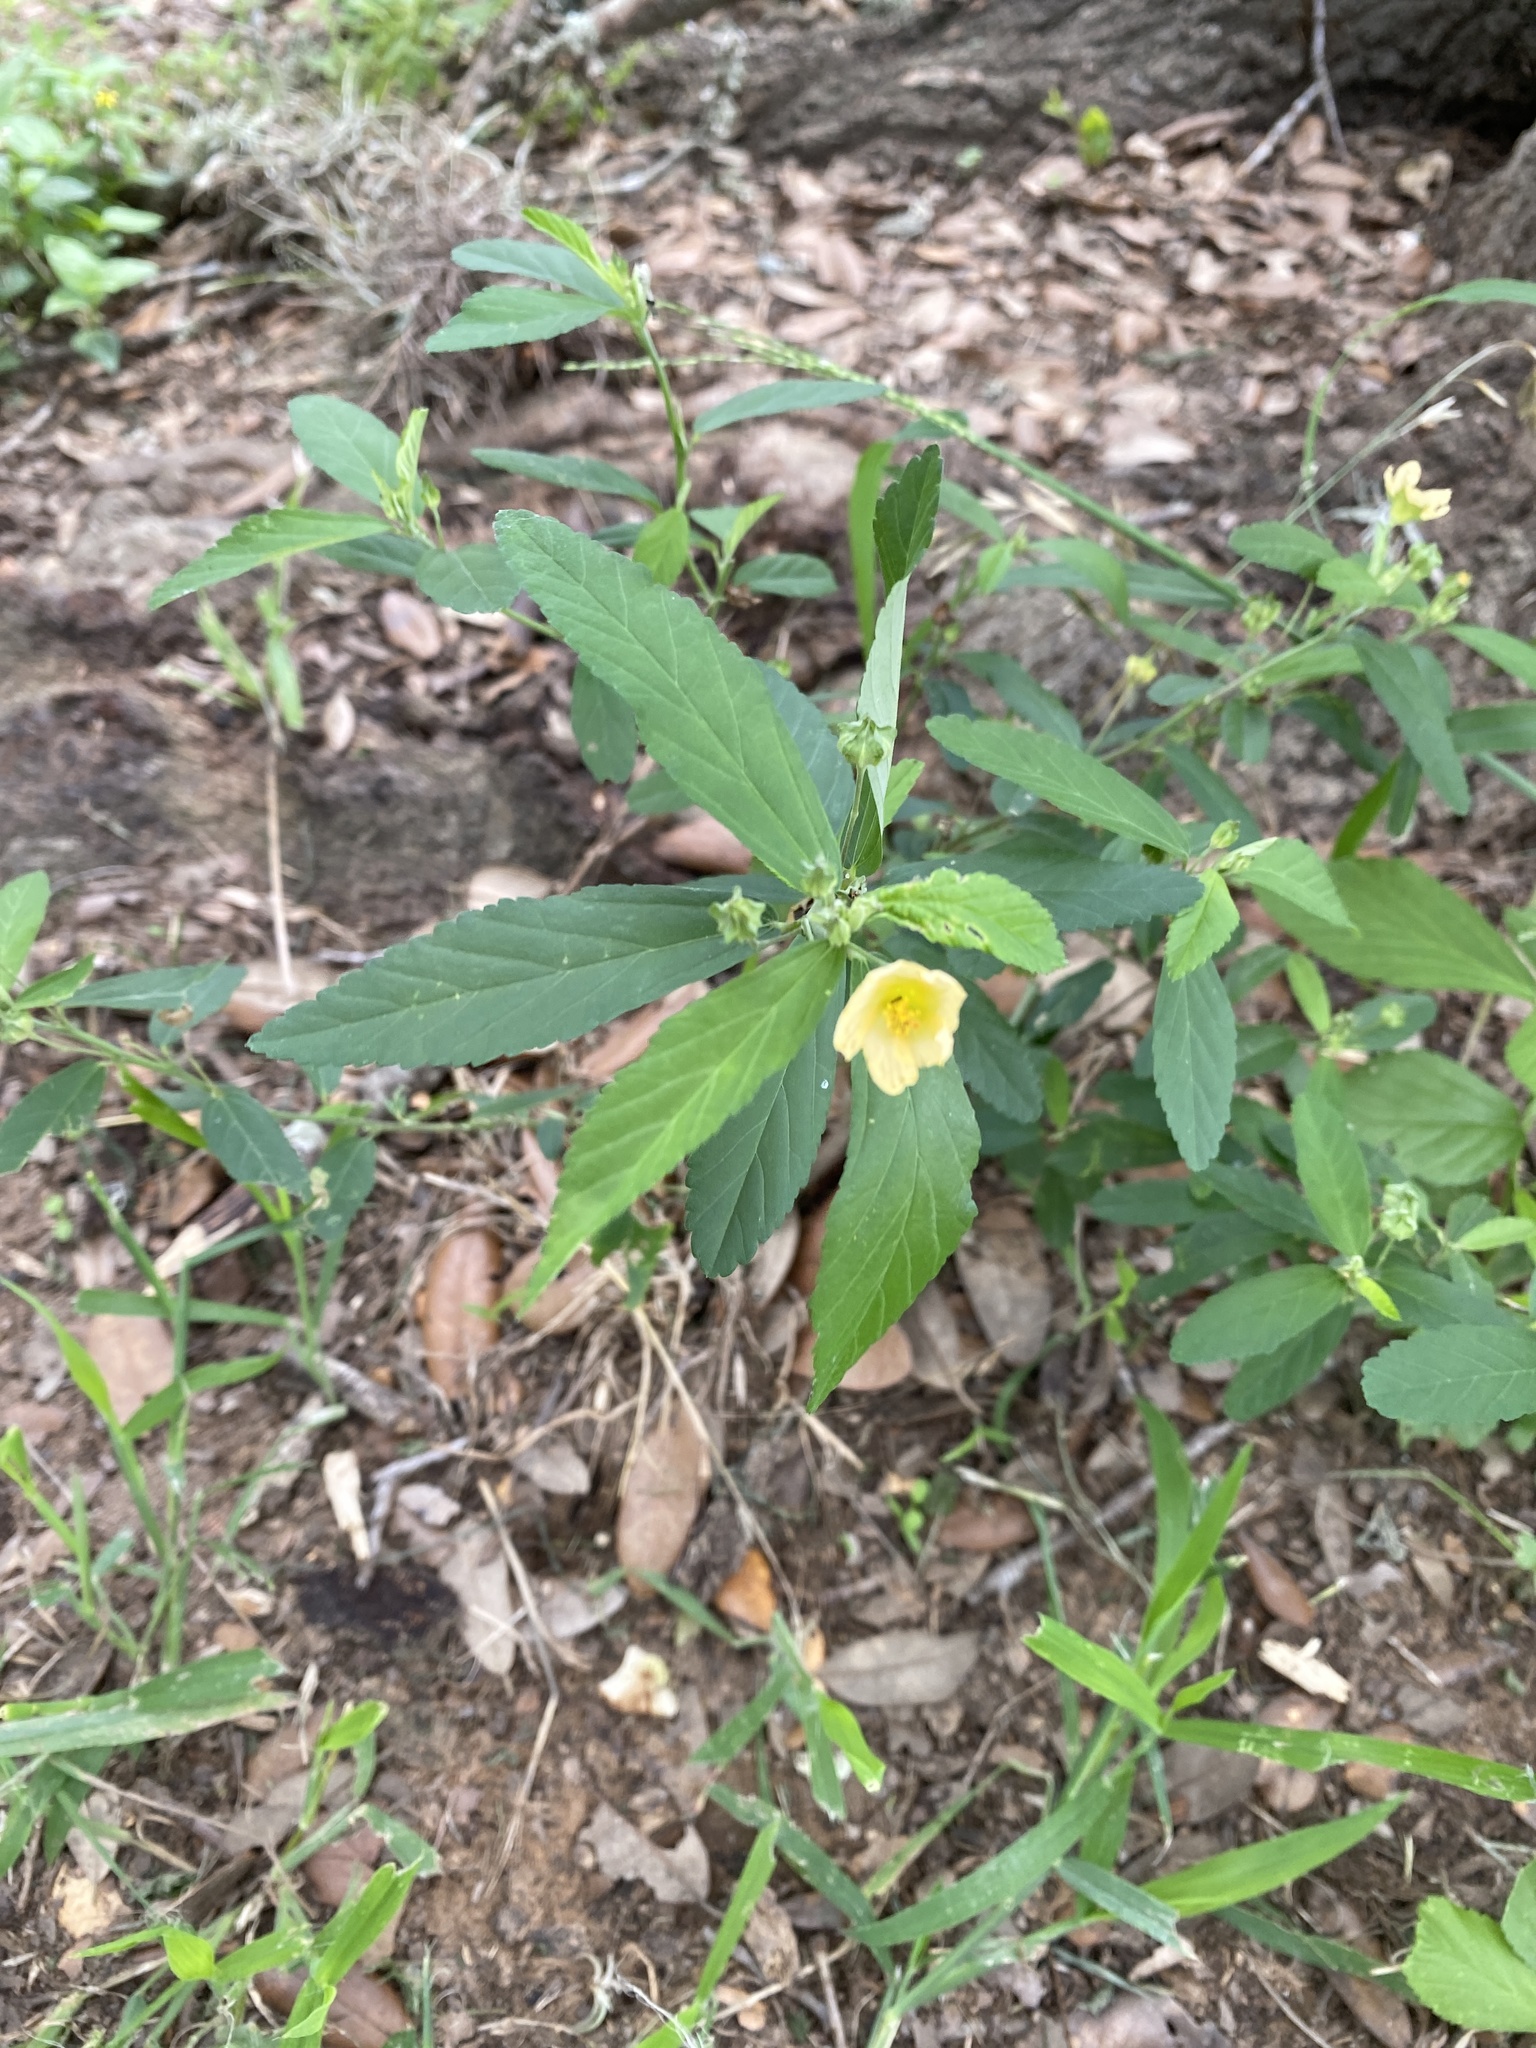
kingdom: Plantae
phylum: Tracheophyta
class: Magnoliopsida
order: Malvales
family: Malvaceae
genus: Sida
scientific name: Sida rhombifolia
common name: Queensland-hemp
